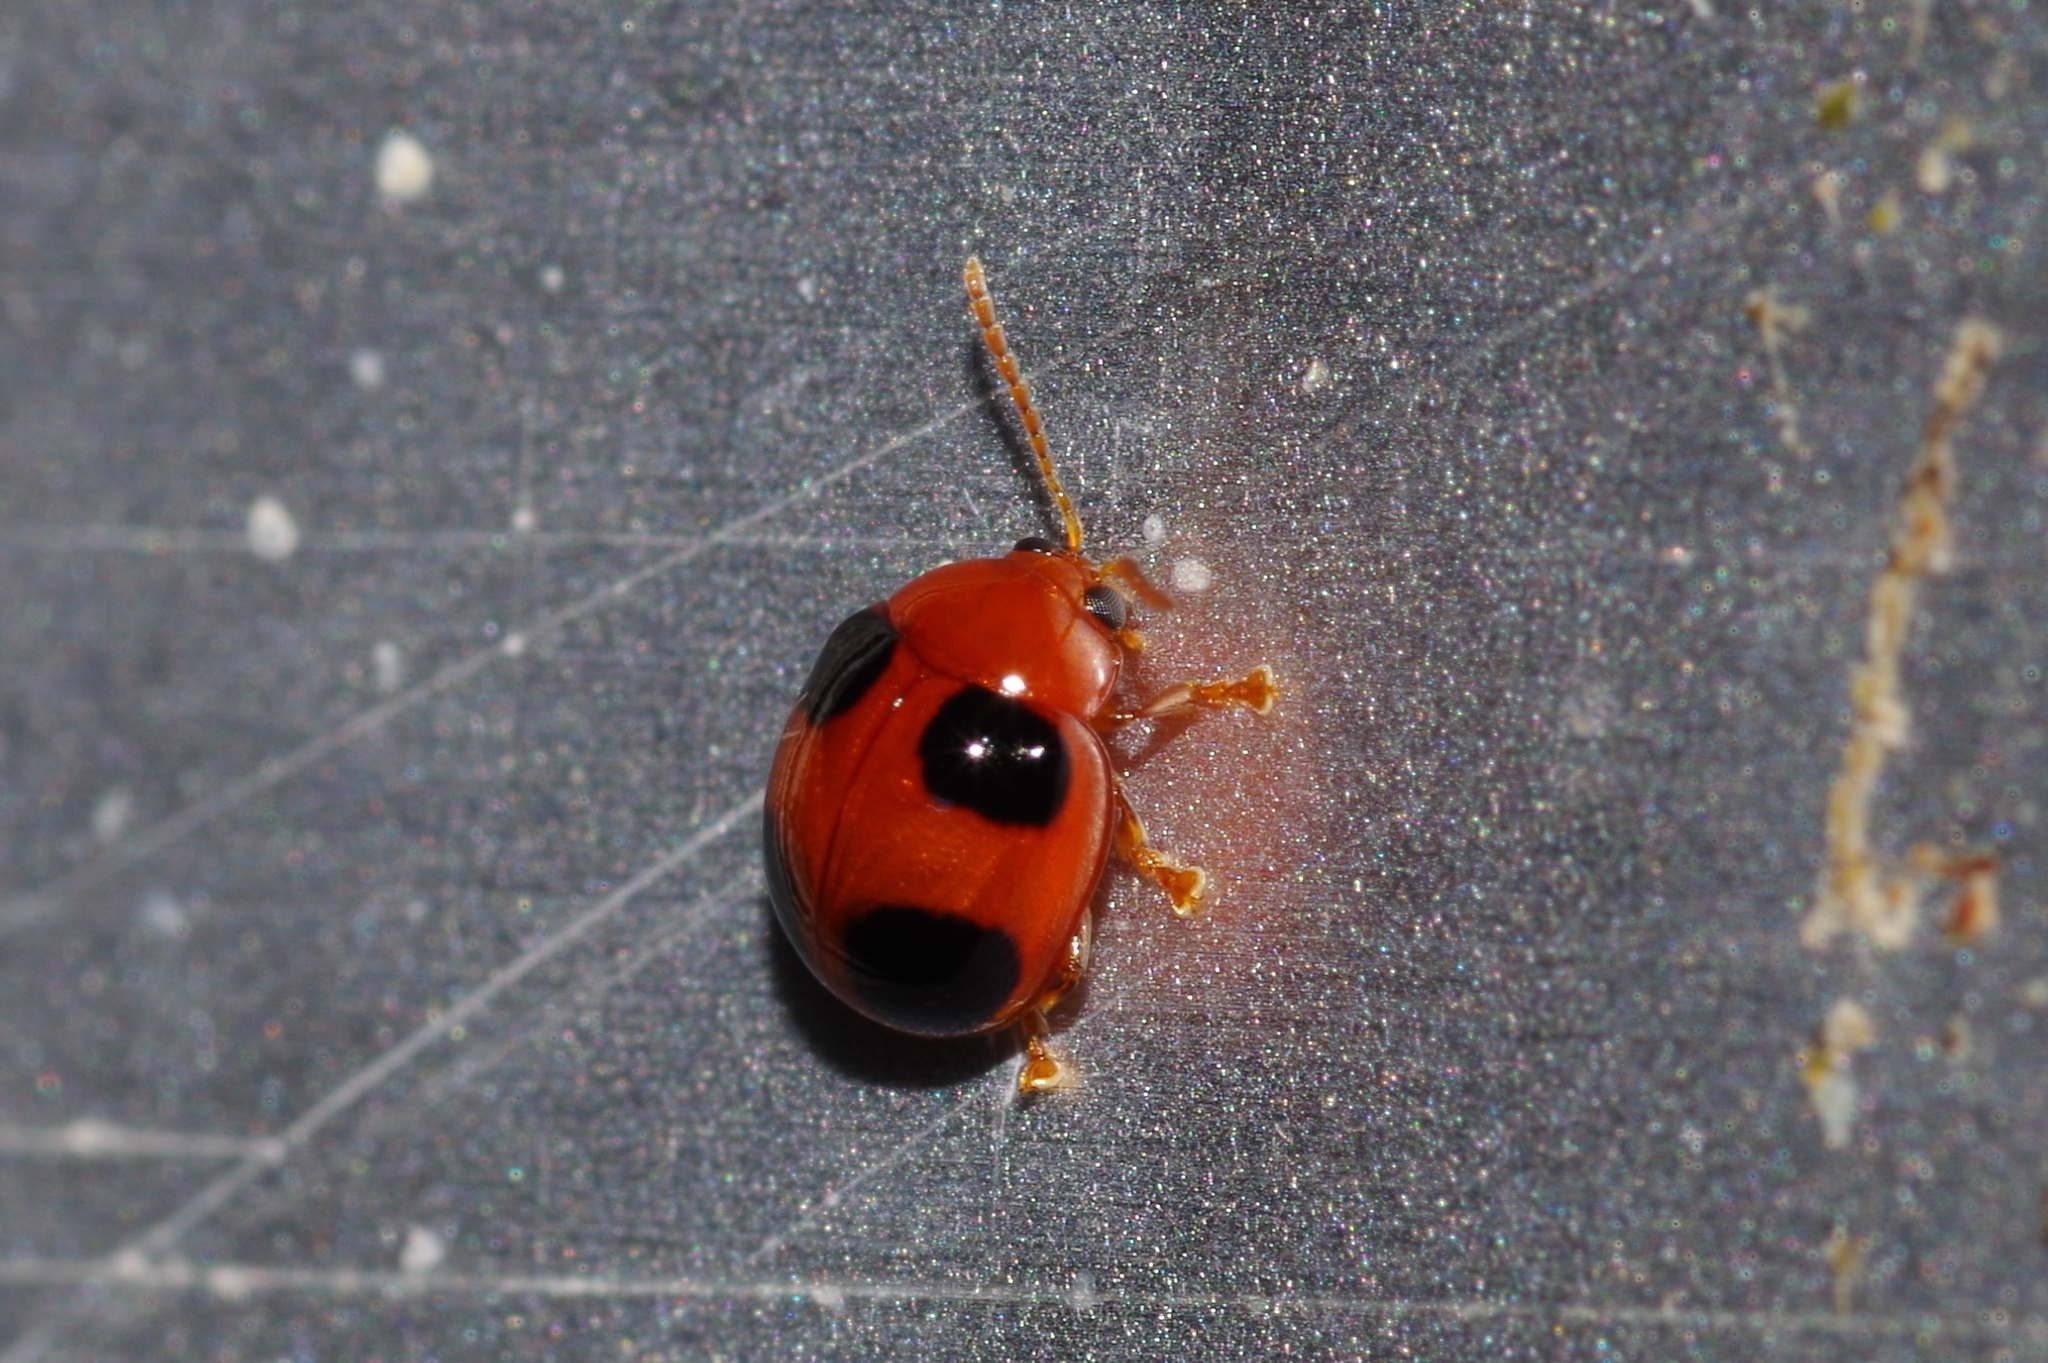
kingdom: Animalia
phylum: Arthropoda
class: Insecta
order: Coleoptera
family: Chrysomelidae
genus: Sphaeroderma
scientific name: Sphaeroderma
